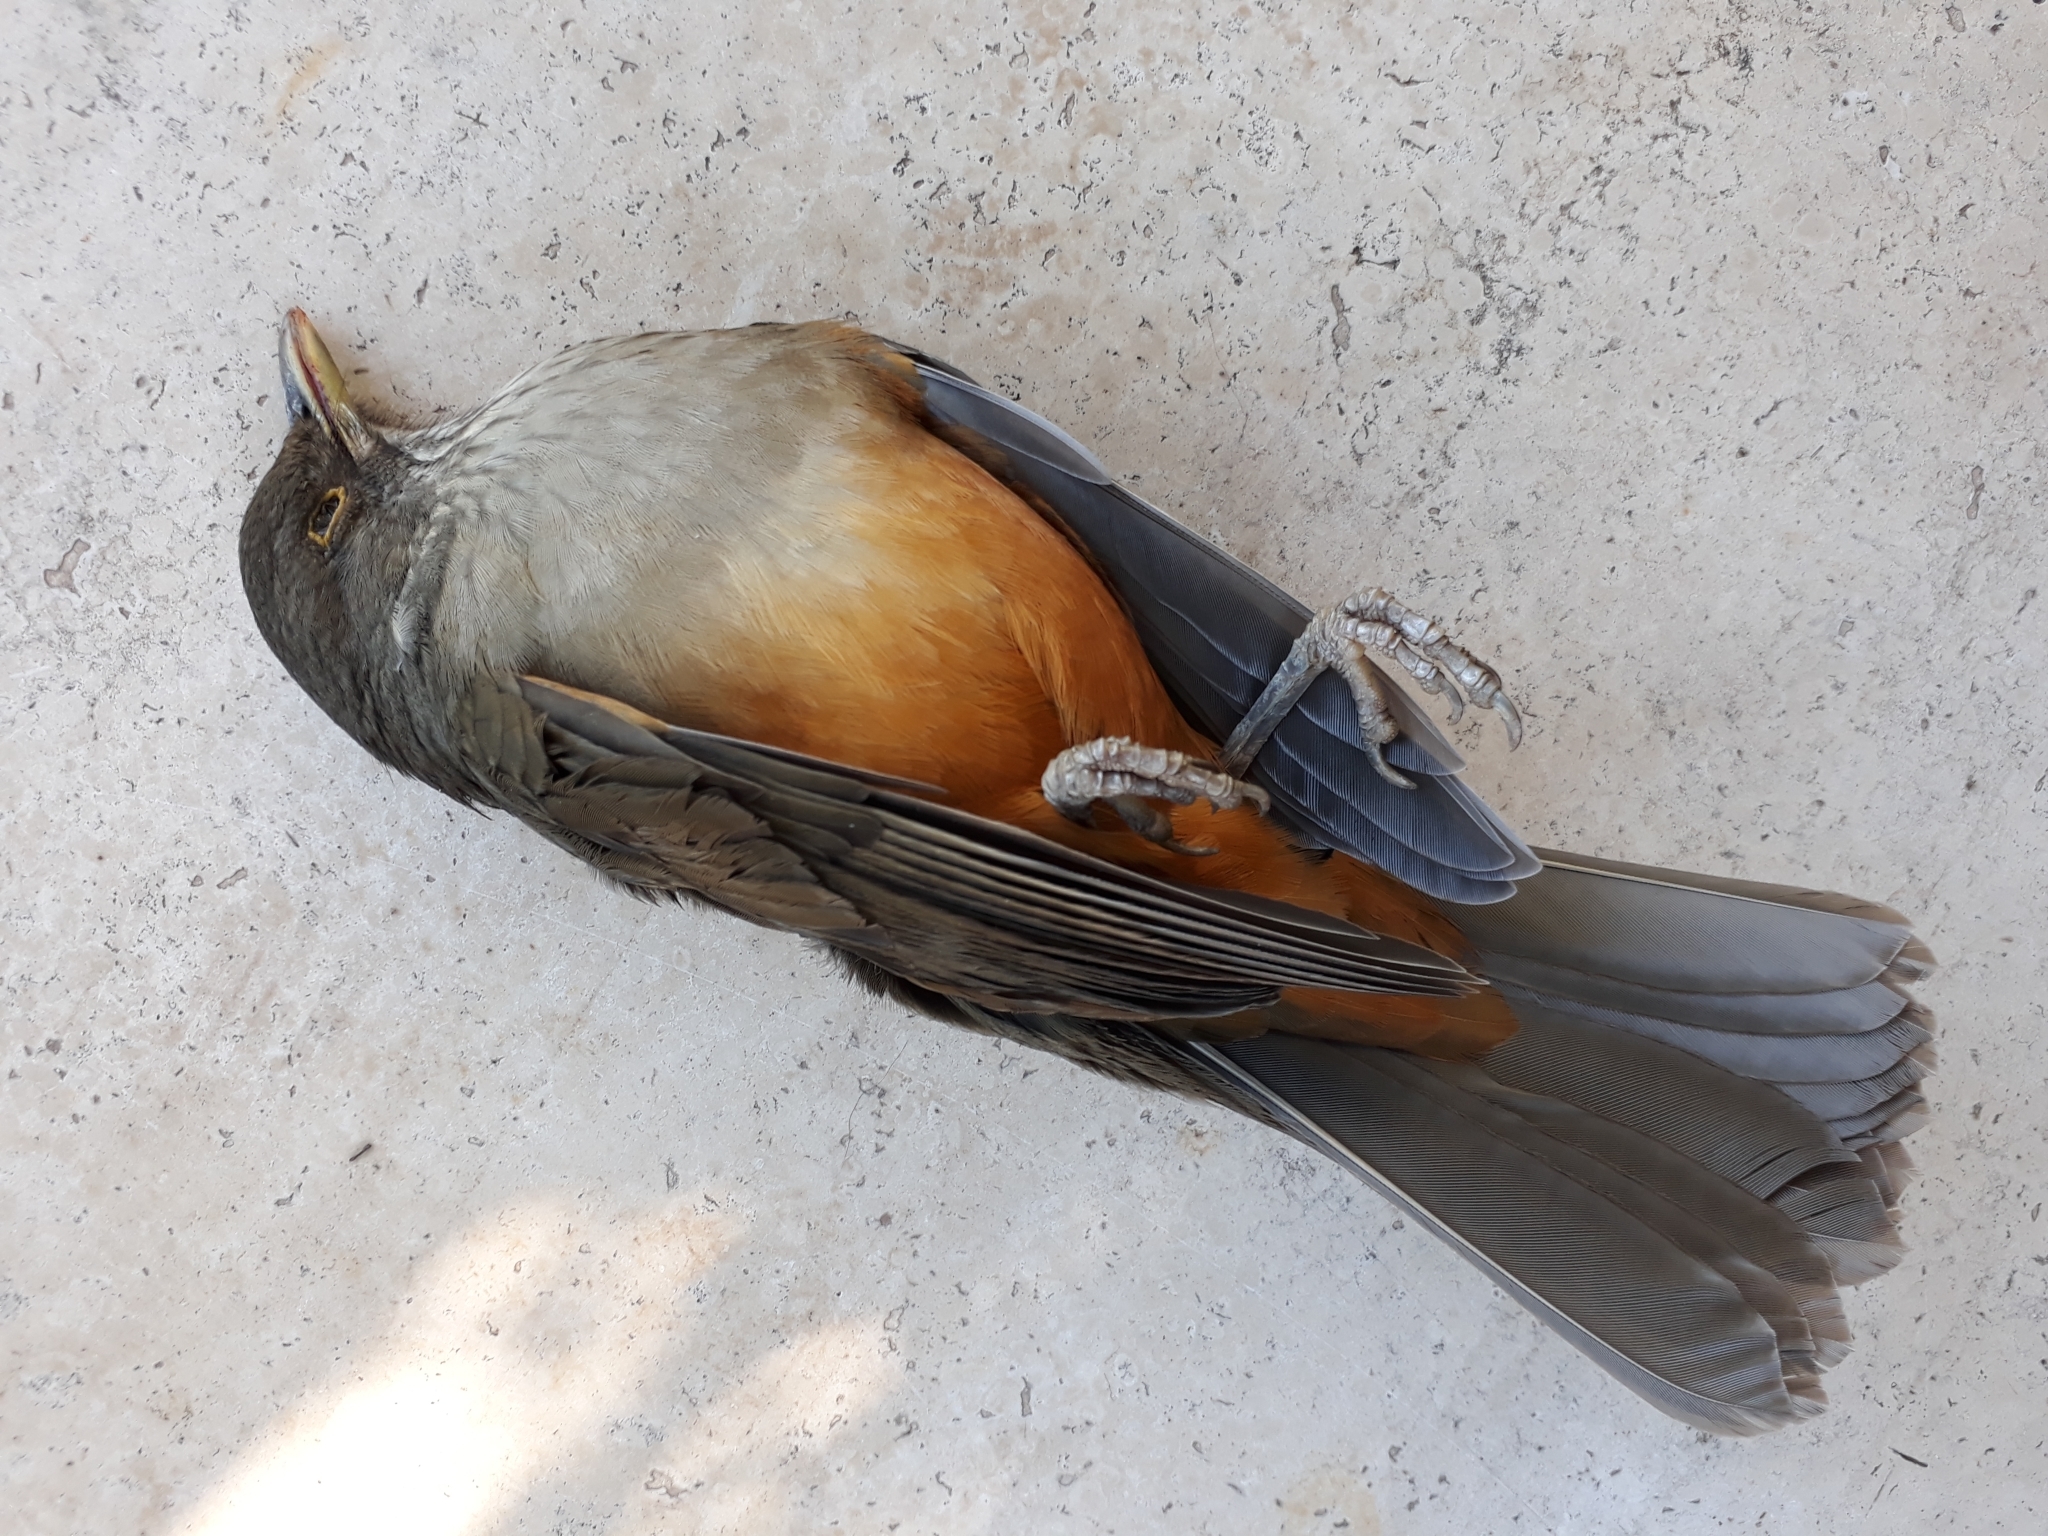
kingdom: Animalia
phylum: Chordata
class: Aves
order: Passeriformes
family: Turdidae
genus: Turdus
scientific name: Turdus rufiventris
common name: Rufous-bellied thrush
